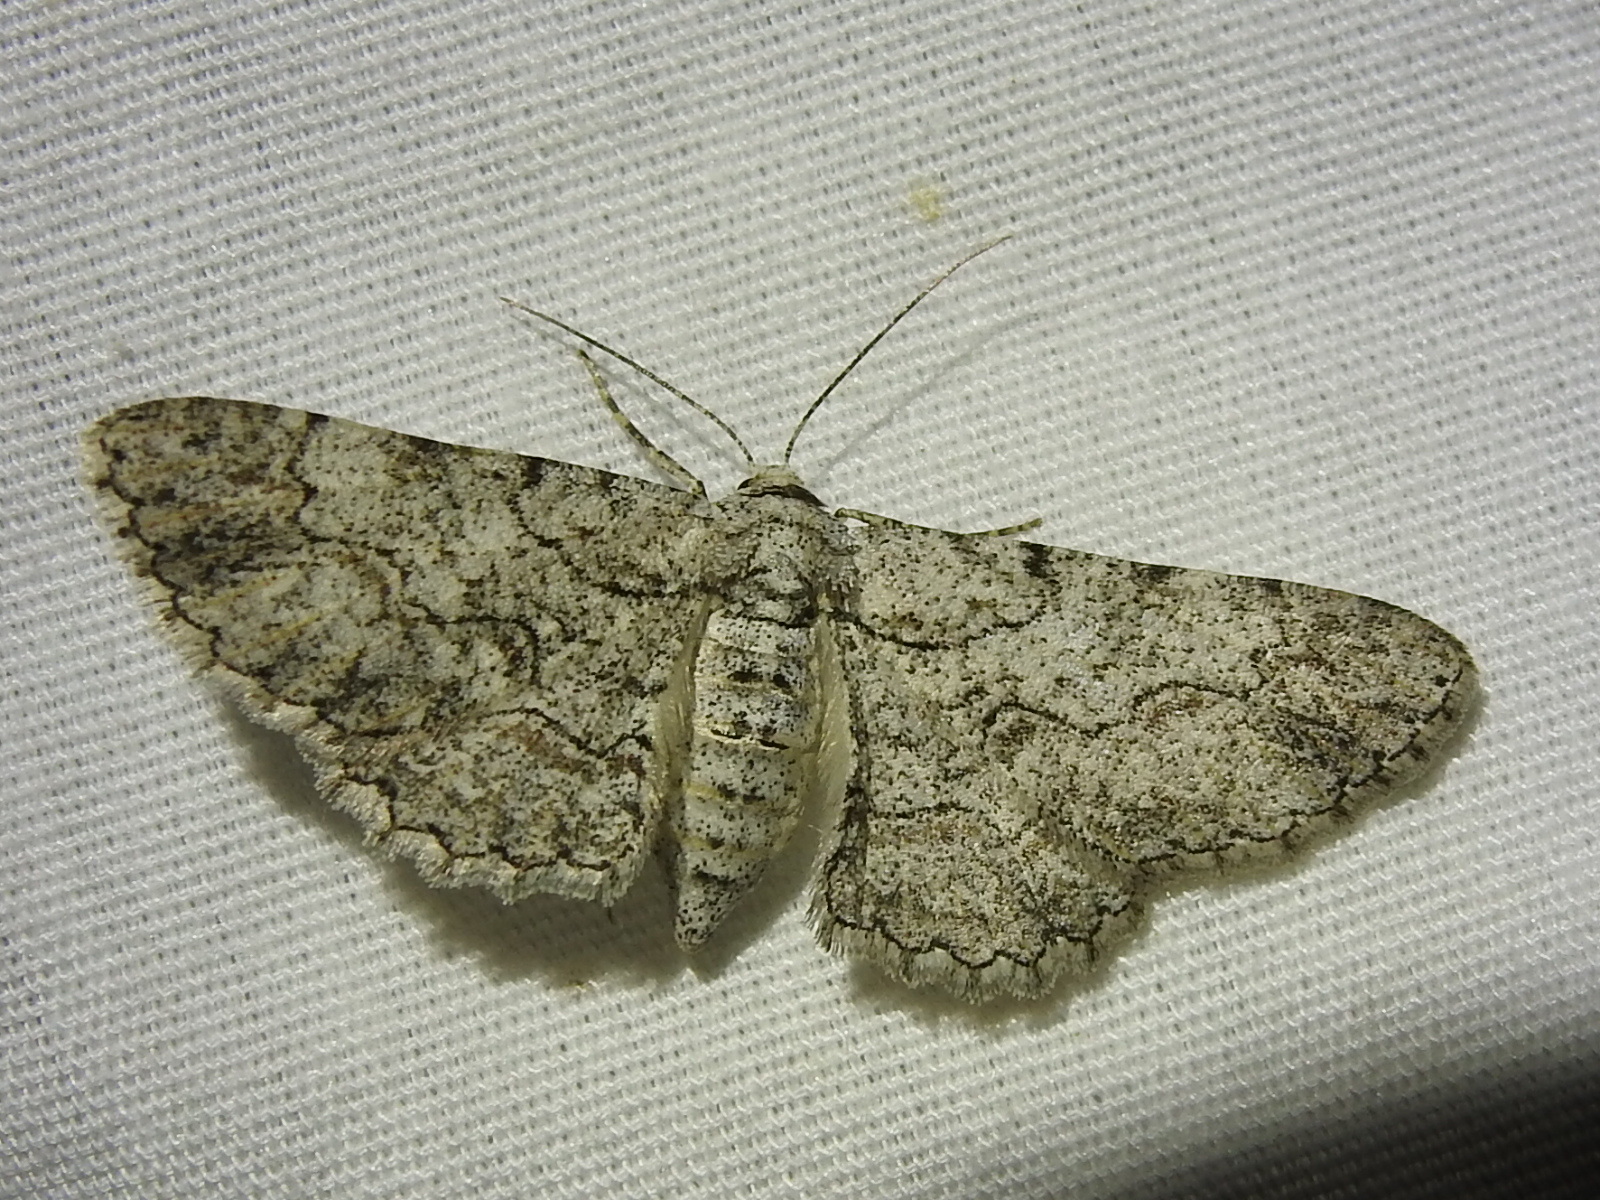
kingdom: Animalia
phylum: Arthropoda
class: Insecta
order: Lepidoptera
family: Geometridae
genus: Iridopsis
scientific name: Iridopsis defectaria
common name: Brown-shaded gray
